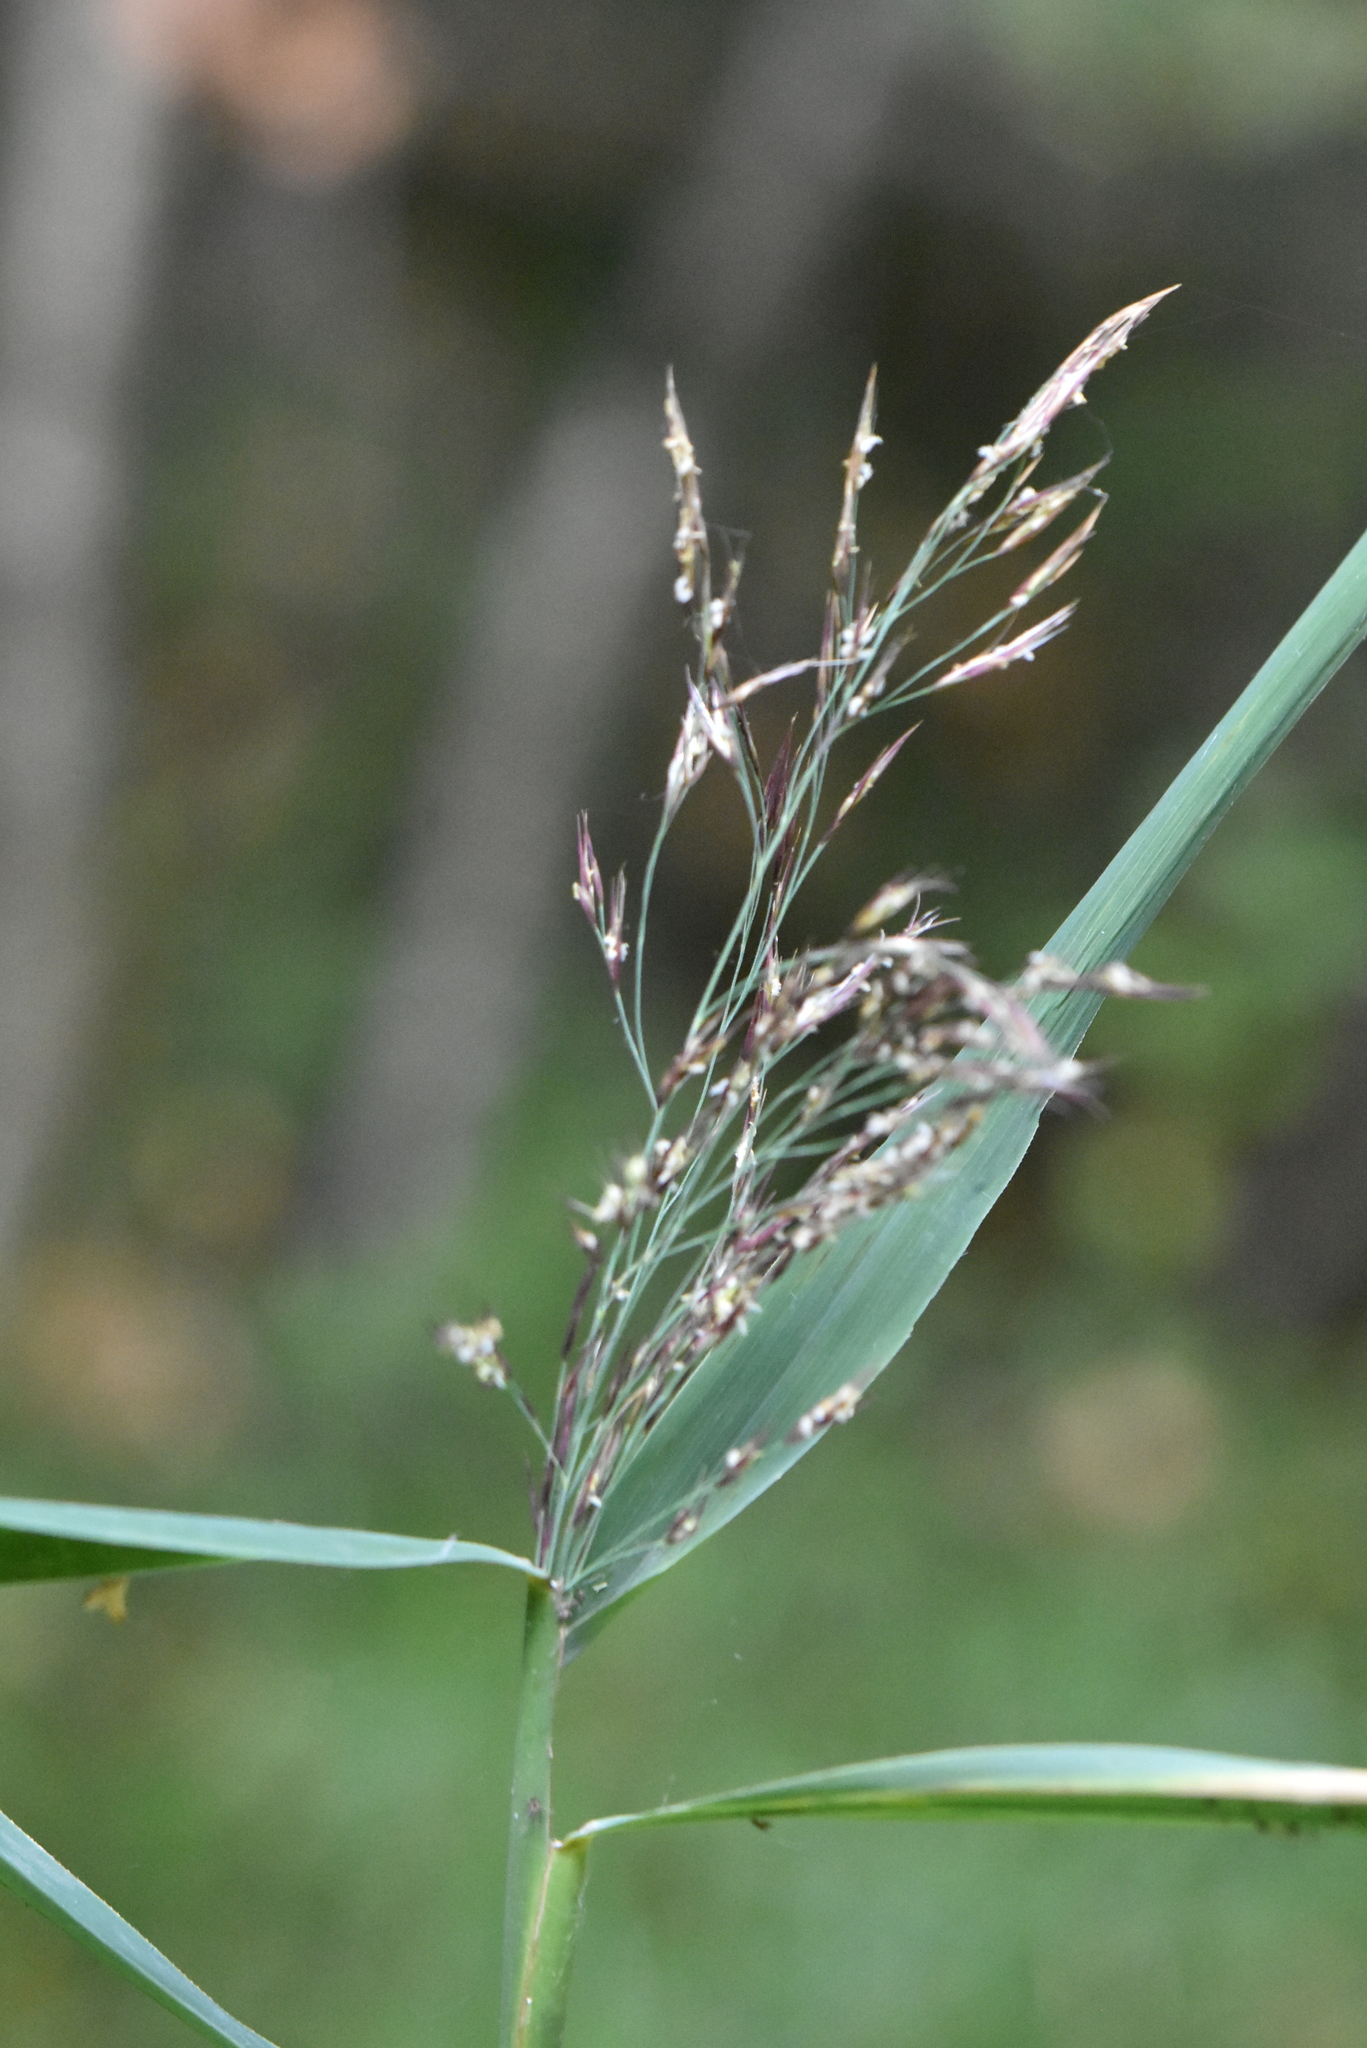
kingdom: Plantae
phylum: Tracheophyta
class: Liliopsida
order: Poales
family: Poaceae
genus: Phragmites
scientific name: Phragmites australis
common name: Common reed
